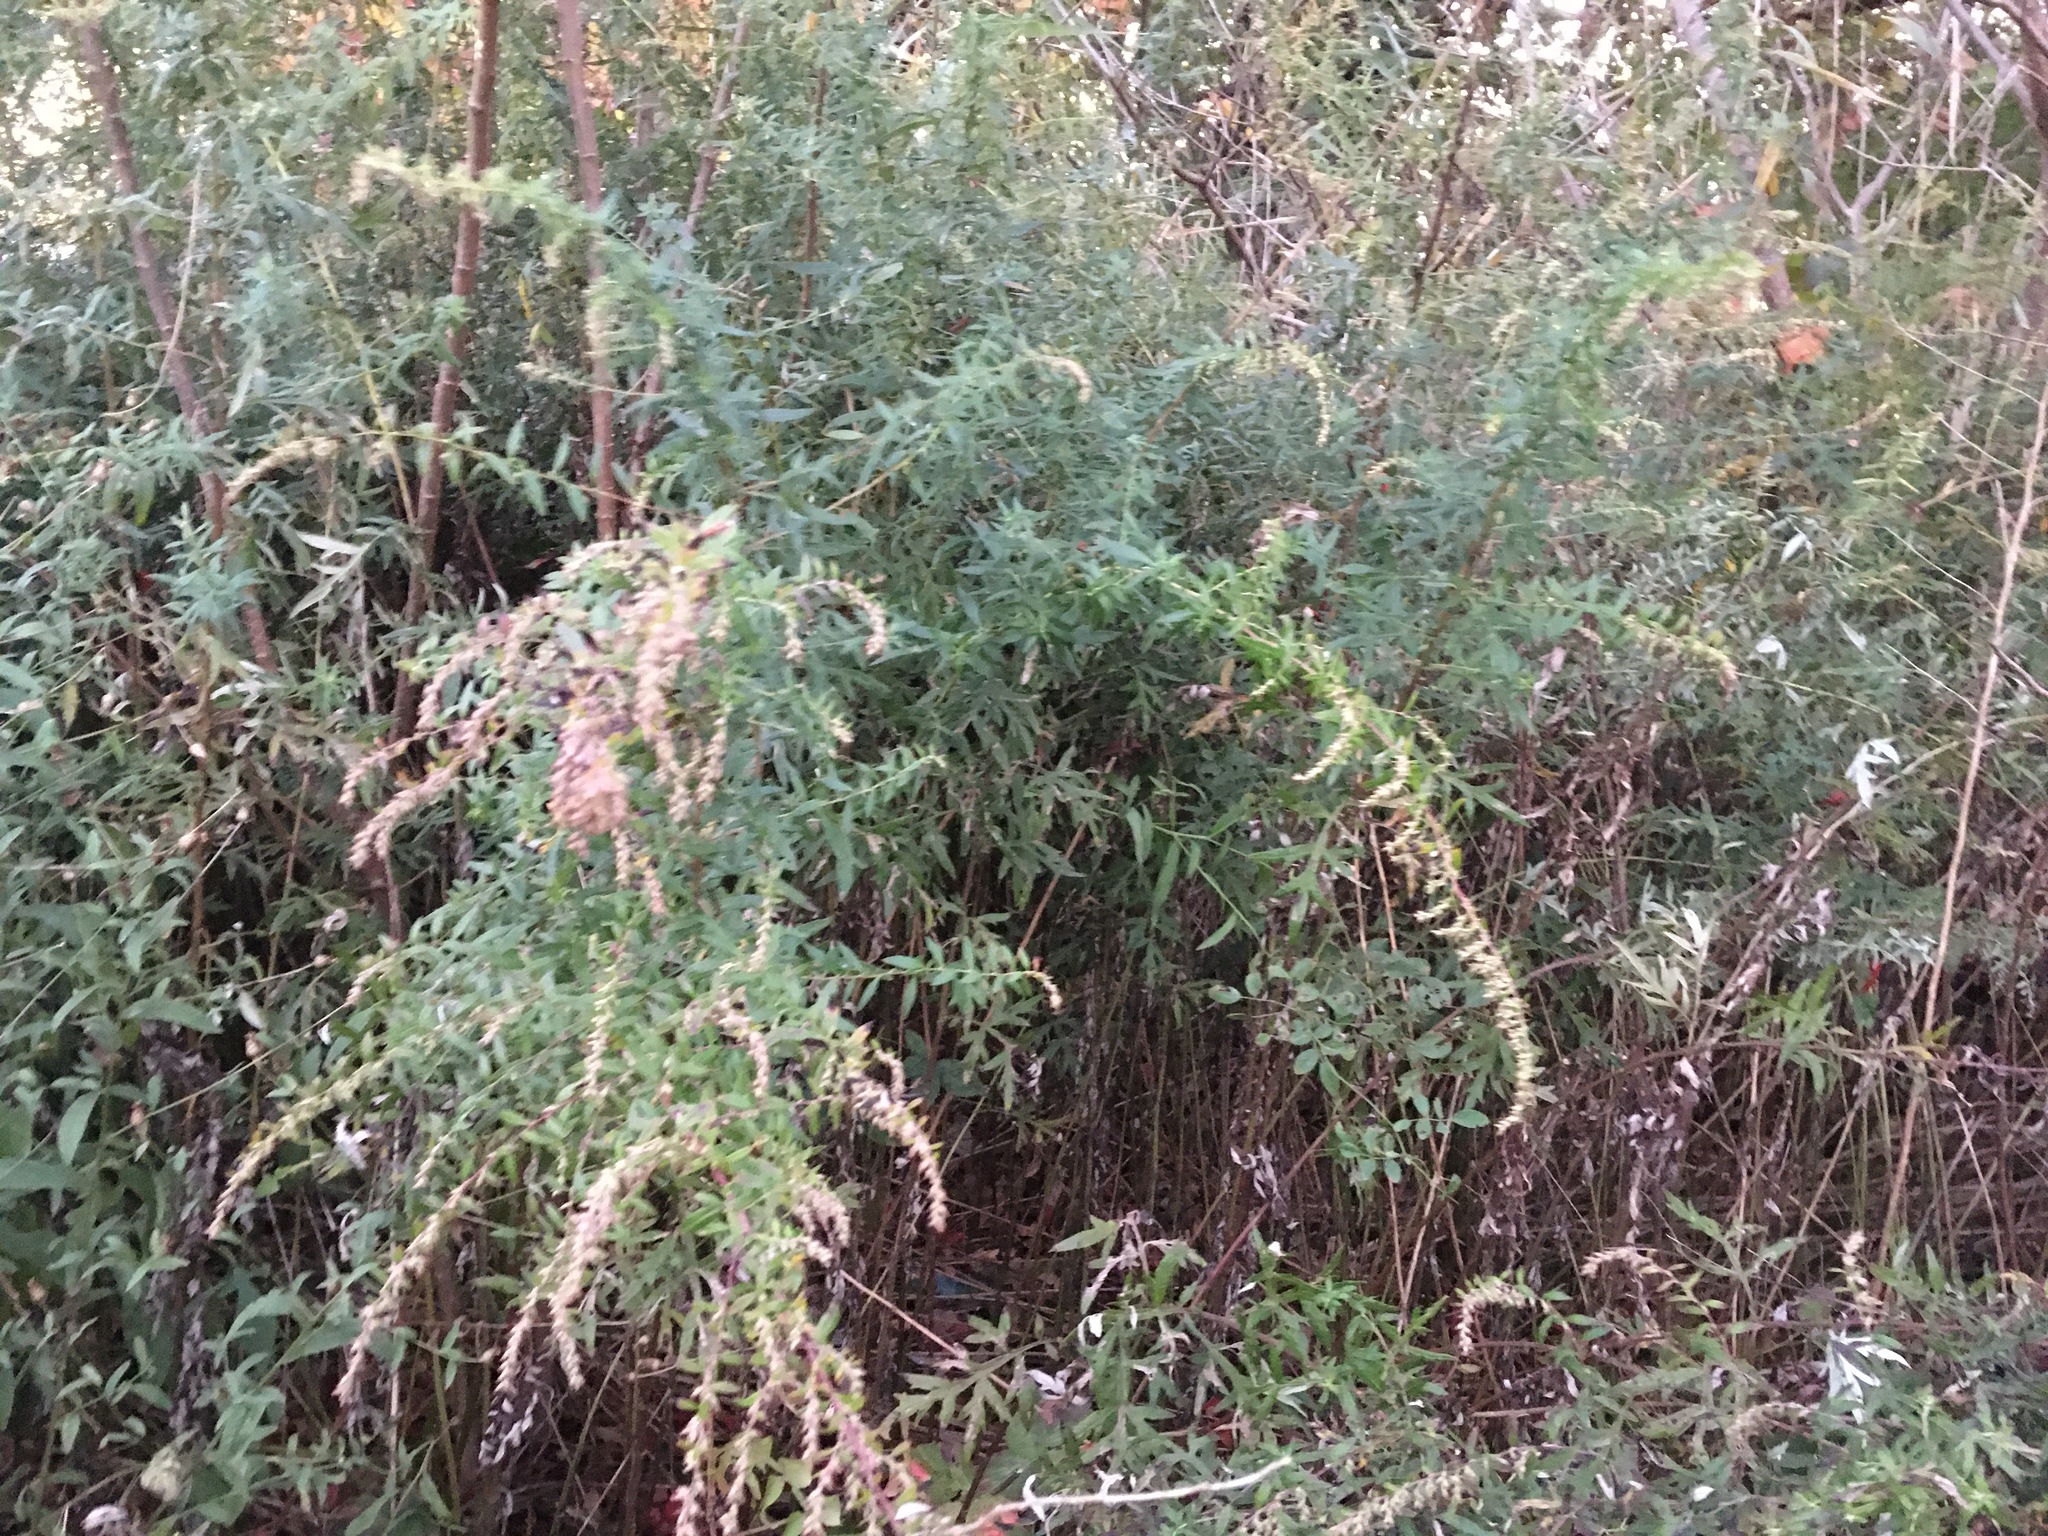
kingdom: Plantae
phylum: Tracheophyta
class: Magnoliopsida
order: Asterales
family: Asteraceae
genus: Artemisia
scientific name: Artemisia vulgaris
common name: Mugwort
